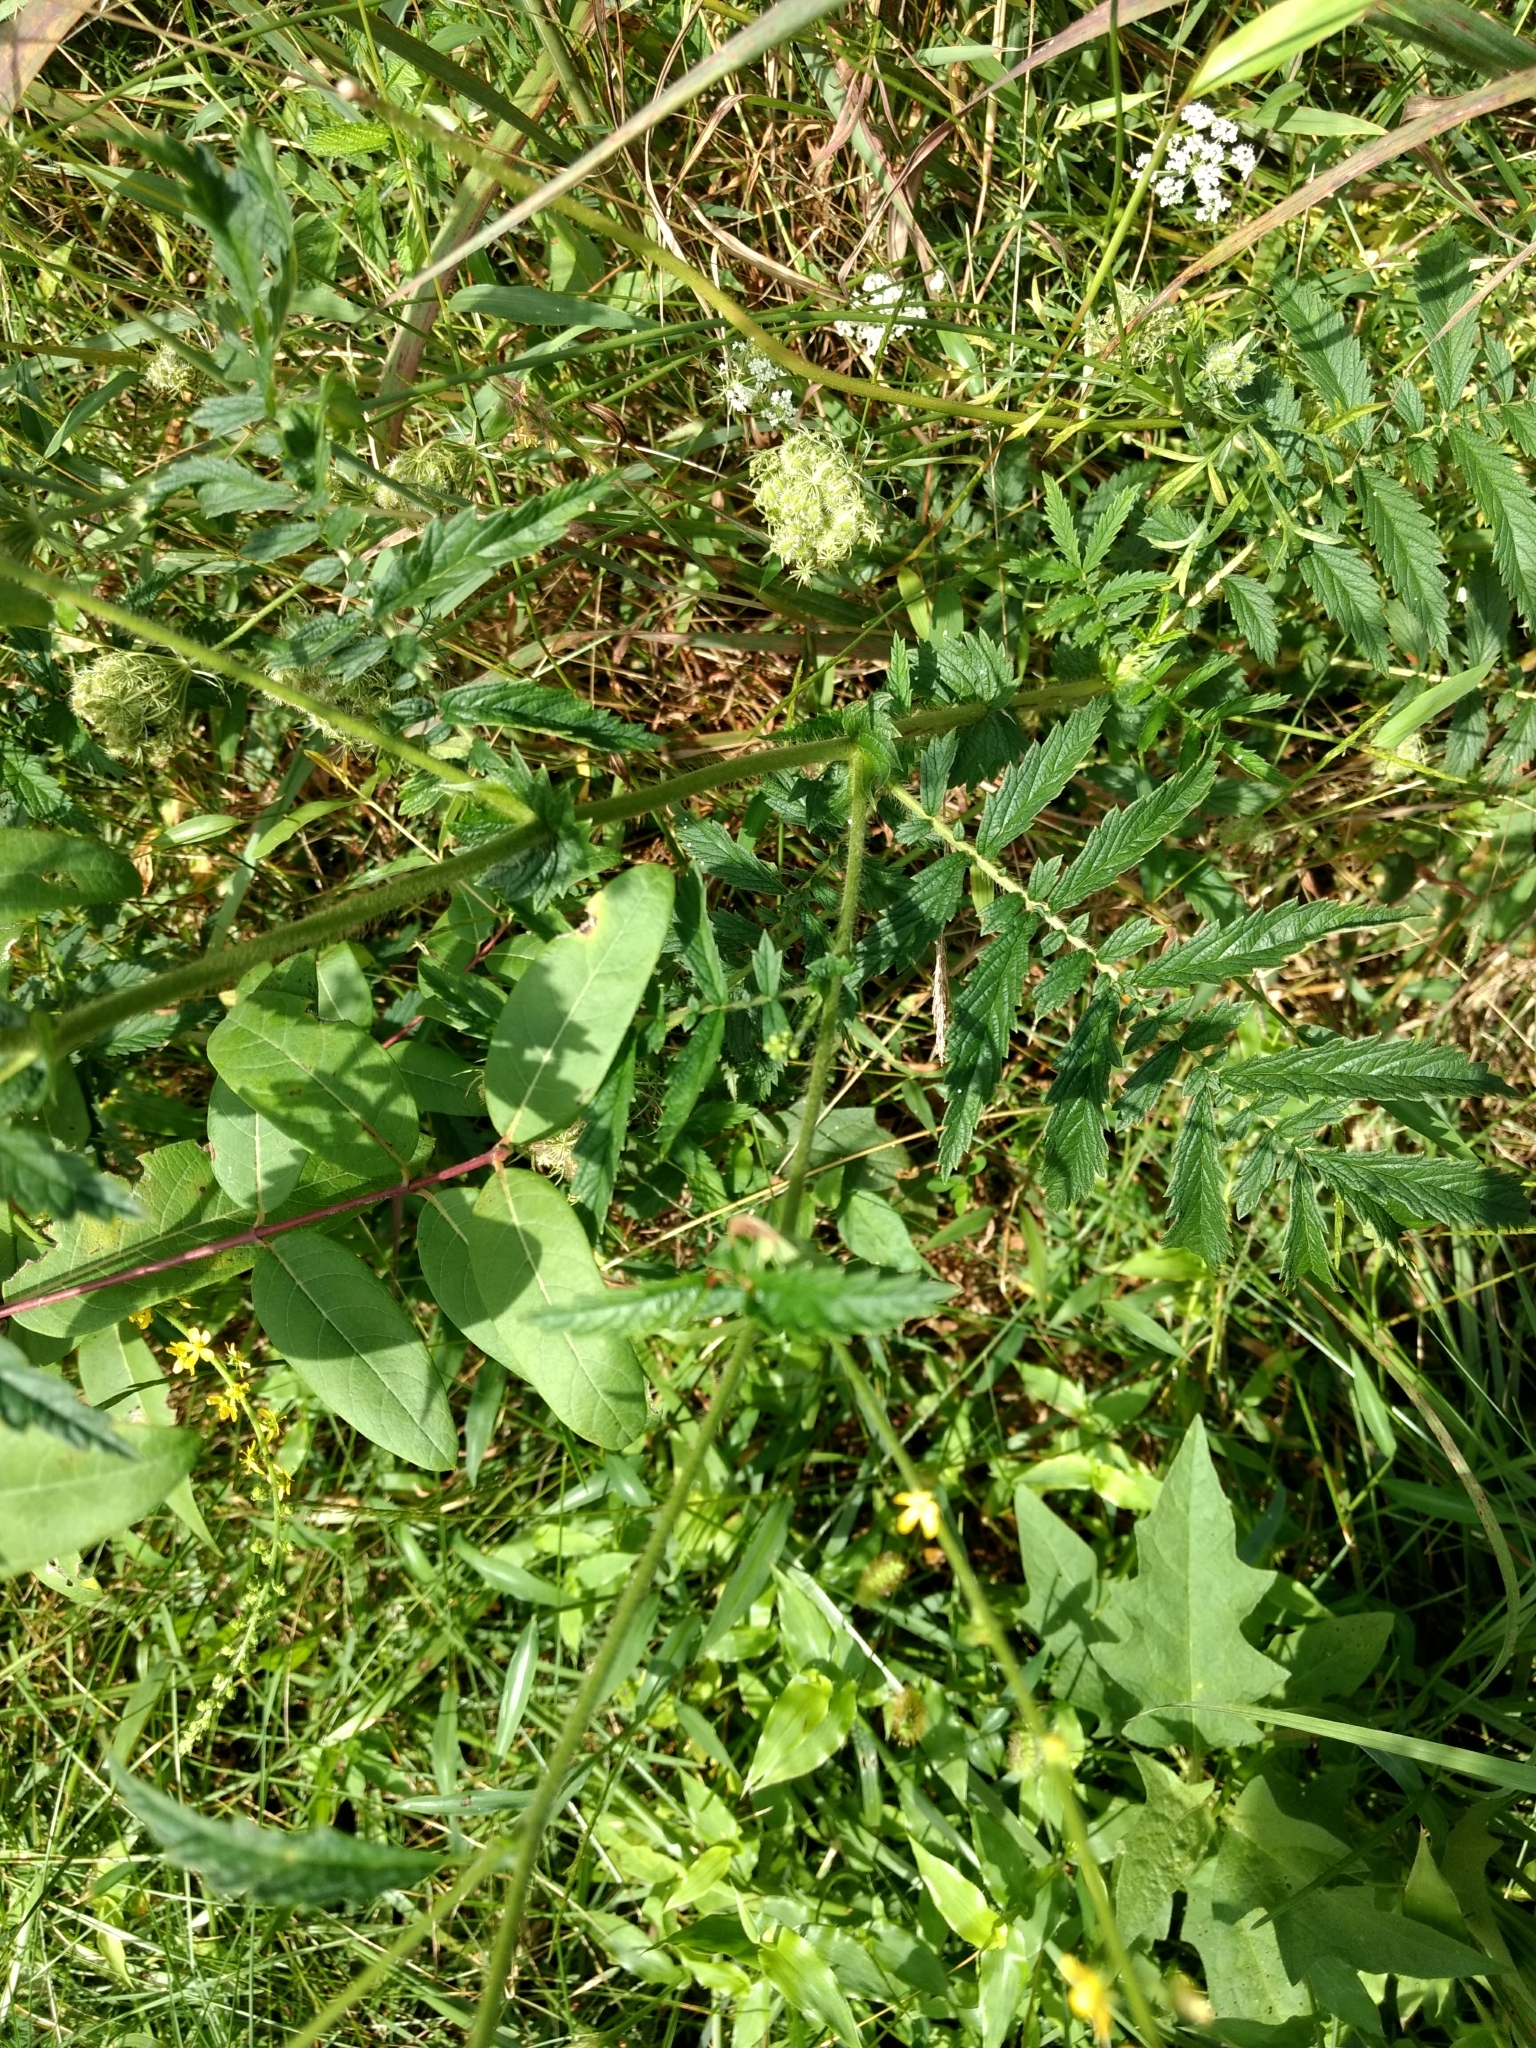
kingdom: Plantae
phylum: Tracheophyta
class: Magnoliopsida
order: Rosales
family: Rosaceae
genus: Agrimonia
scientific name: Agrimonia parviflora
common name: Harvest-lice
